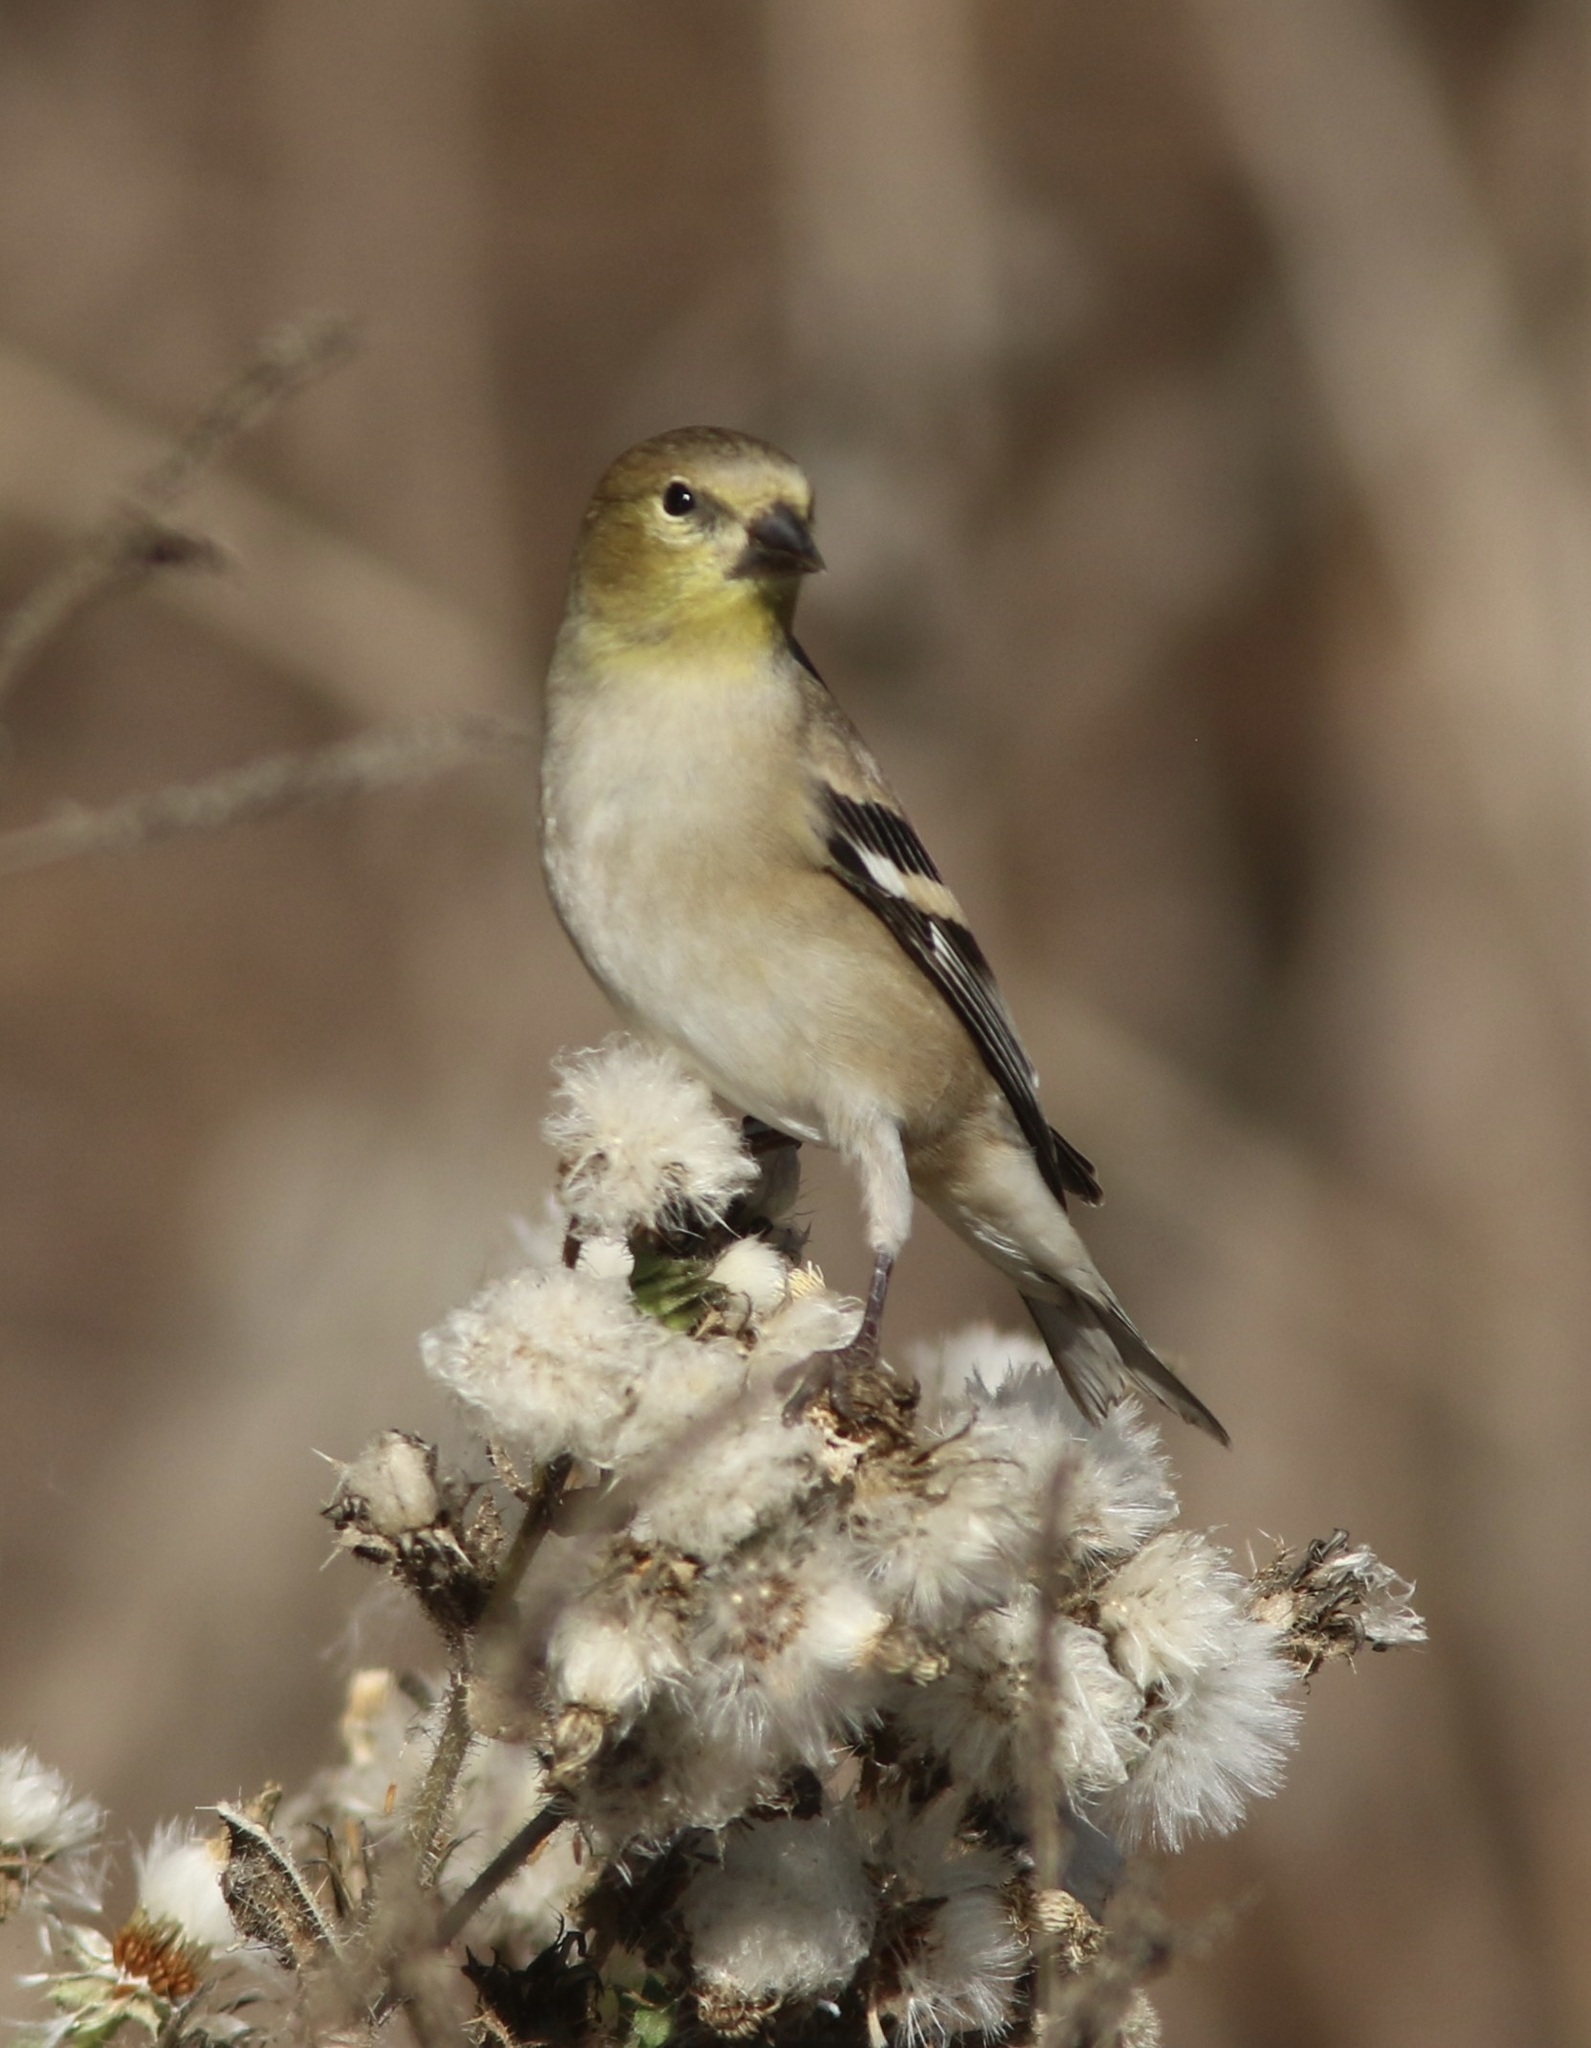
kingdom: Animalia
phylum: Chordata
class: Aves
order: Passeriformes
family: Fringillidae
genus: Spinus
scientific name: Spinus tristis
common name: American goldfinch
